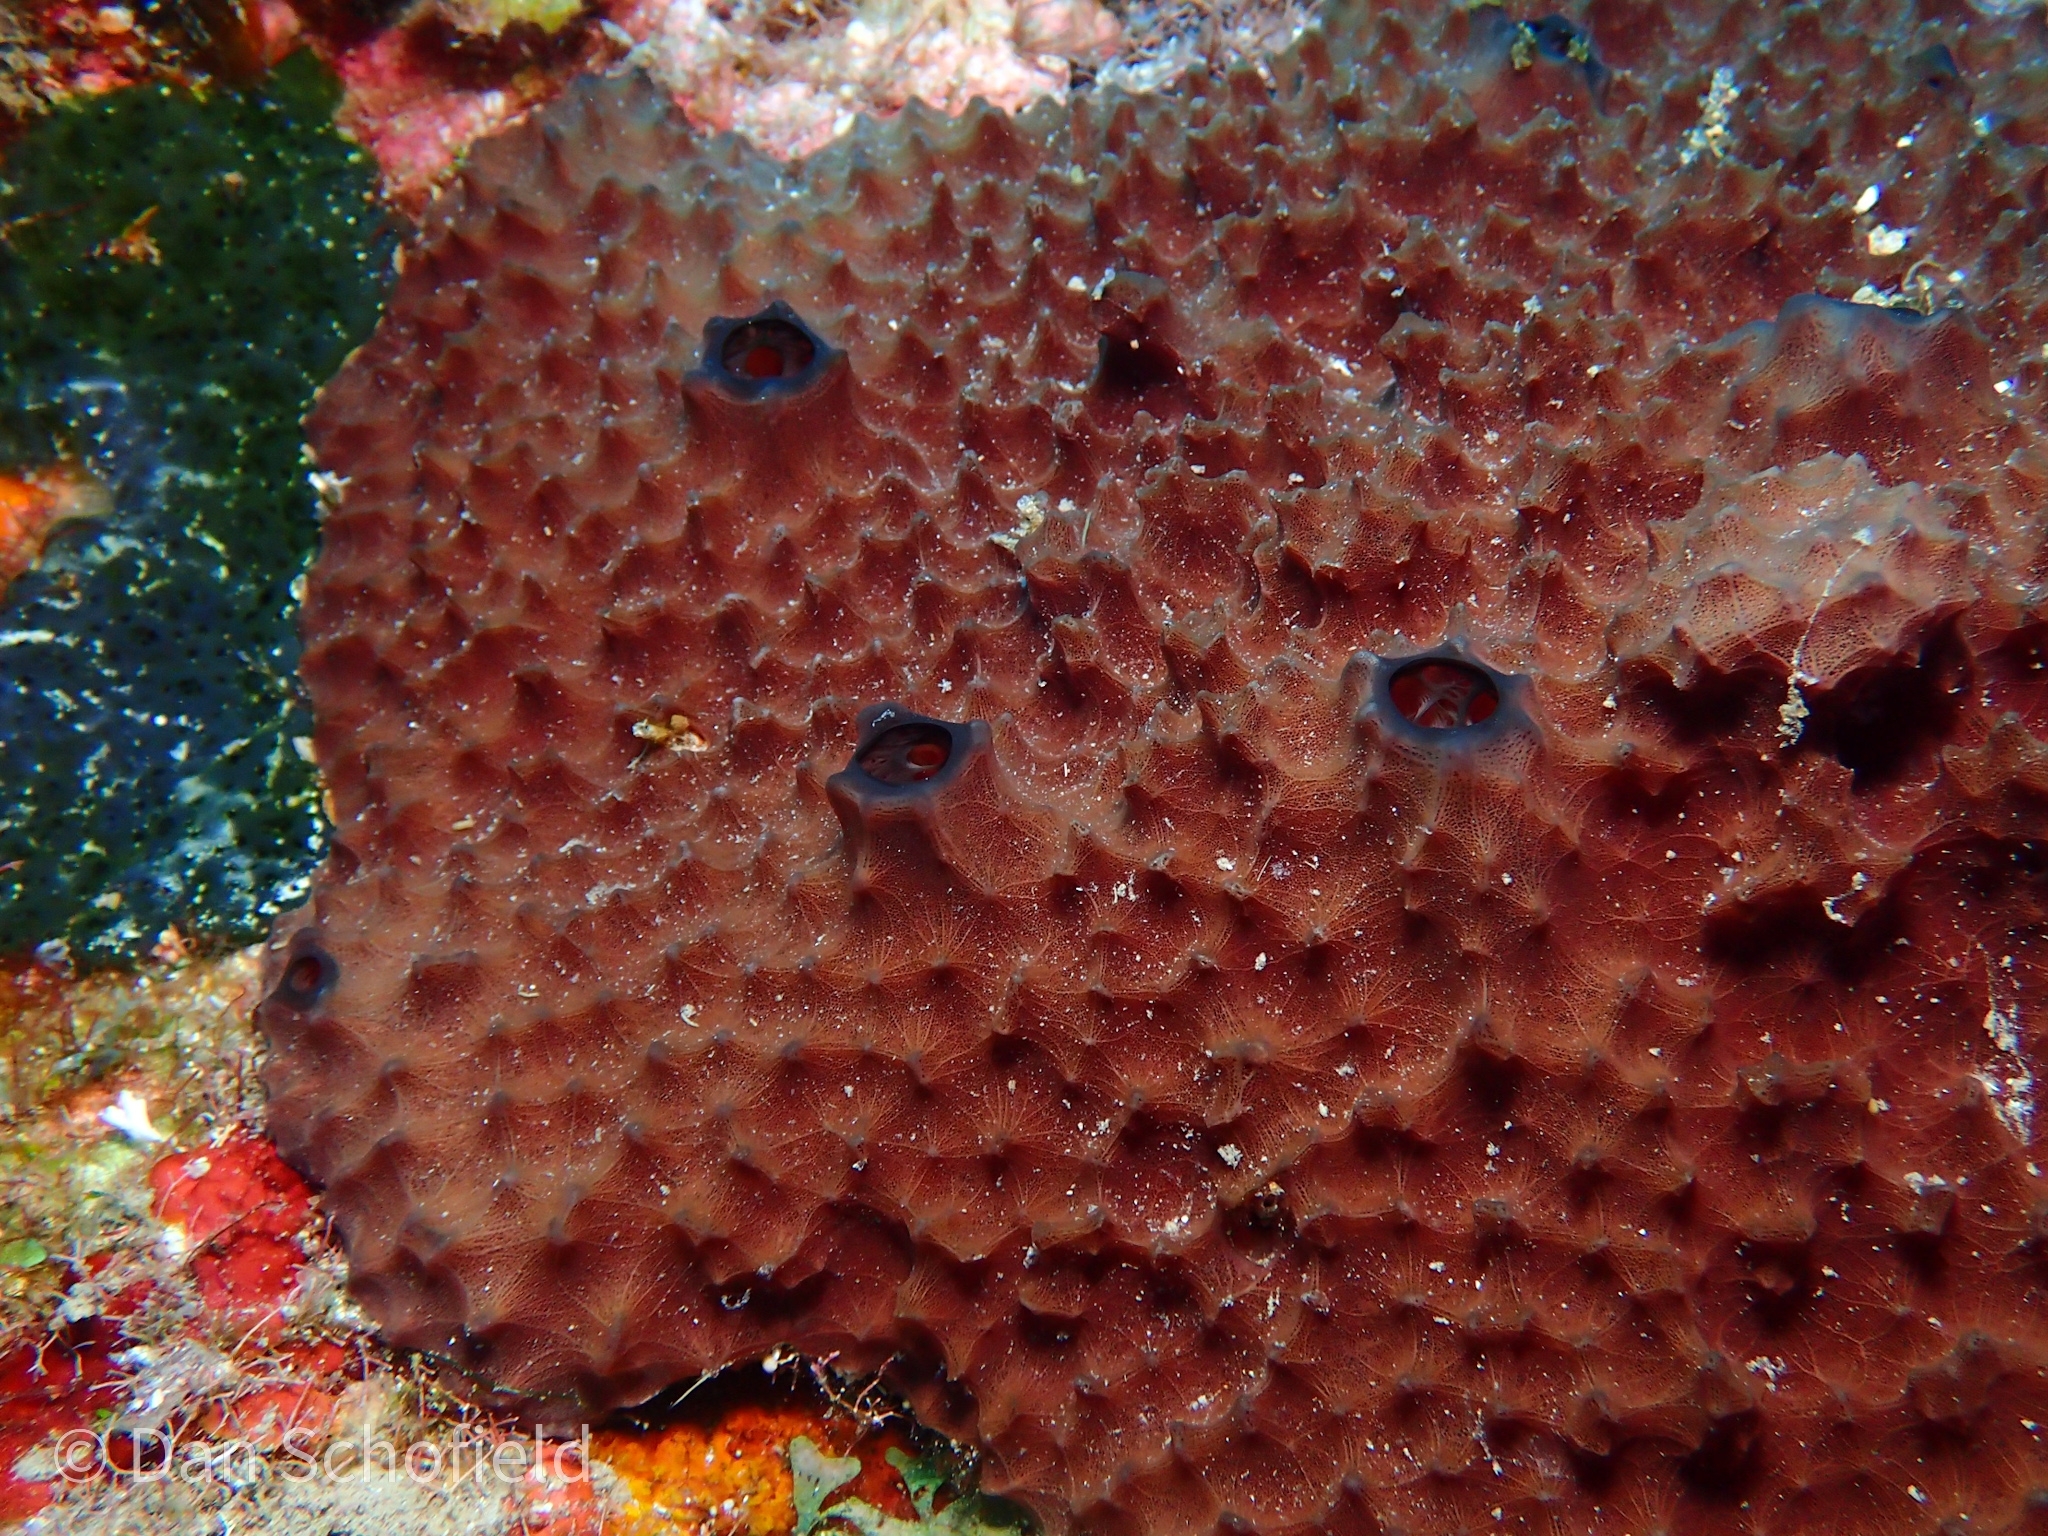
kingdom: Animalia
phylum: Porifera
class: Demospongiae
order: Dictyoceratida
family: Irciniidae
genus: Ircinia
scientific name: Ircinia felix
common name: Stinker sponge
